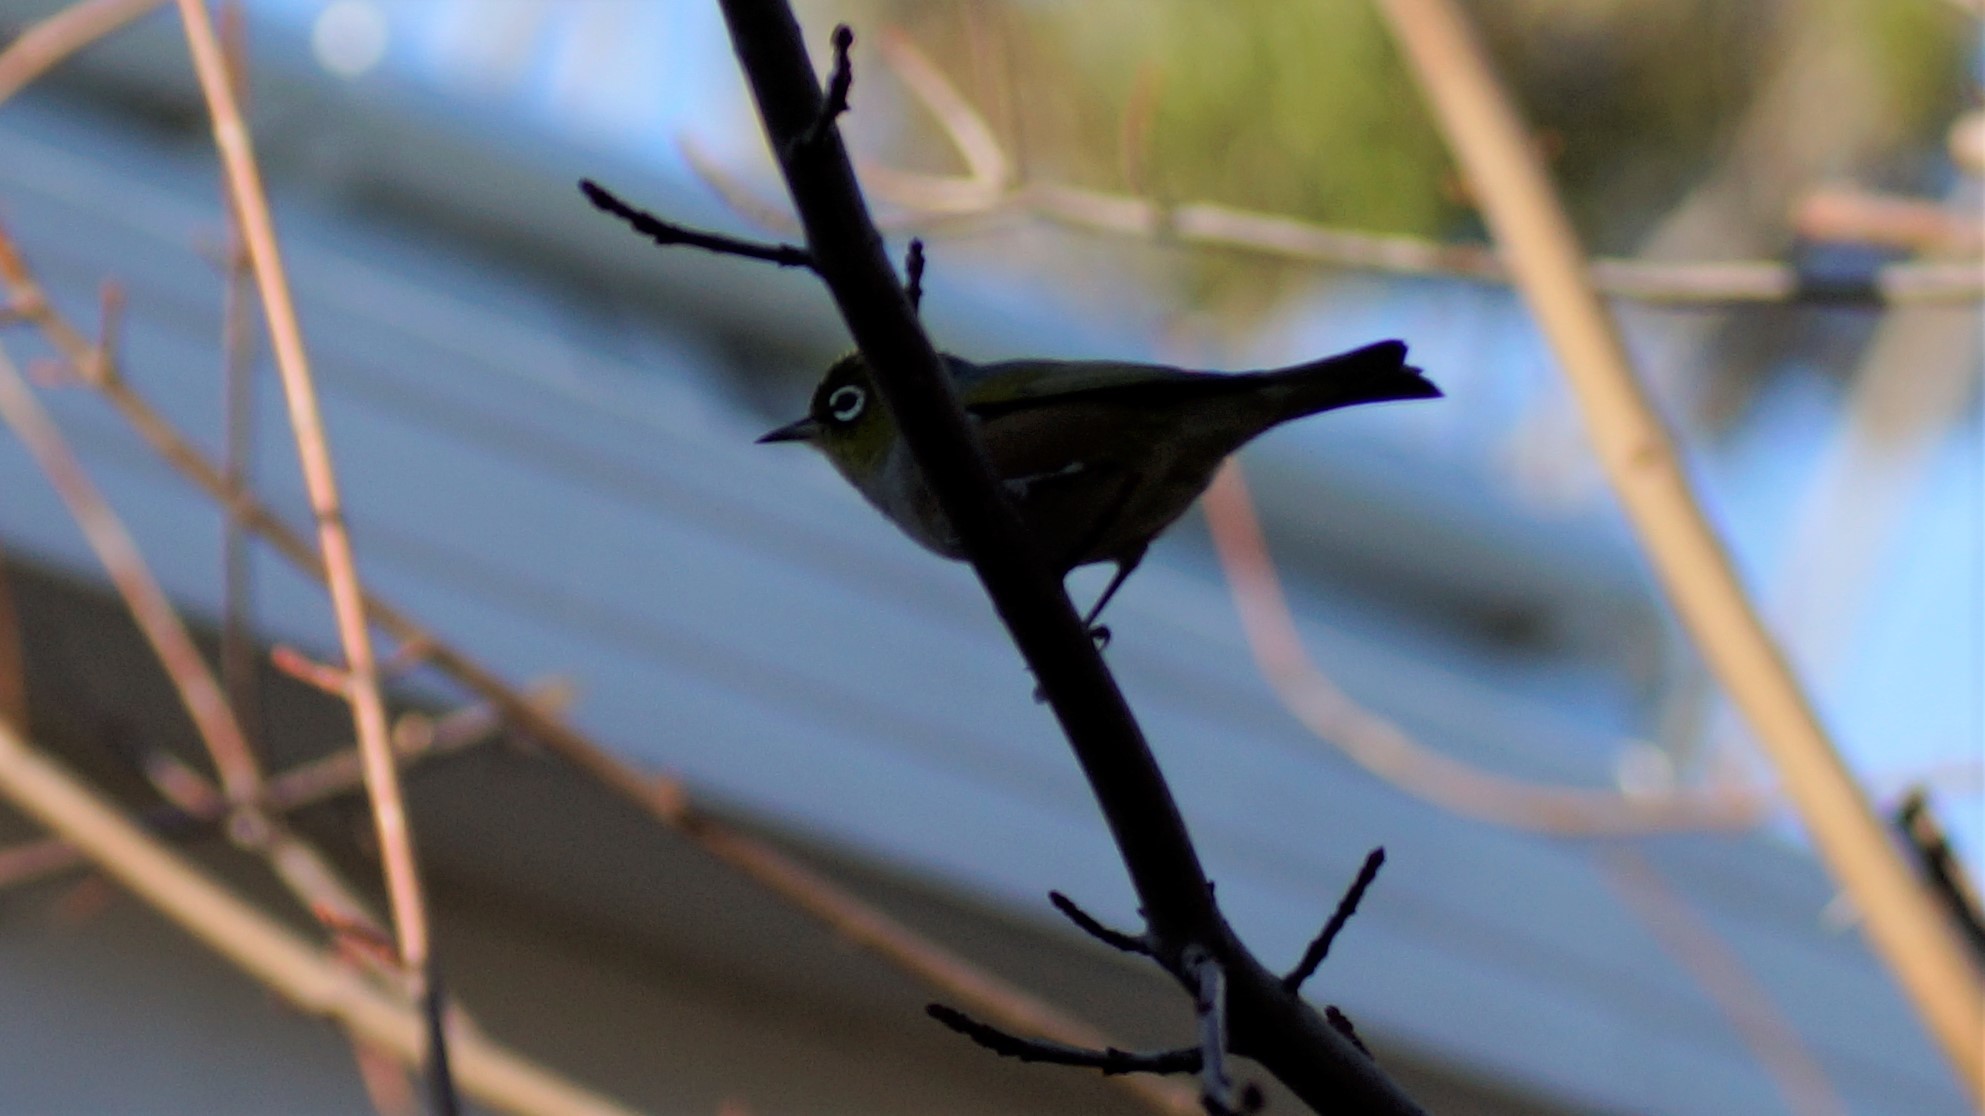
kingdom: Animalia
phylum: Chordata
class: Aves
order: Passeriformes
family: Zosteropidae
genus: Zosterops
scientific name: Zosterops lateralis
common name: Silvereye
